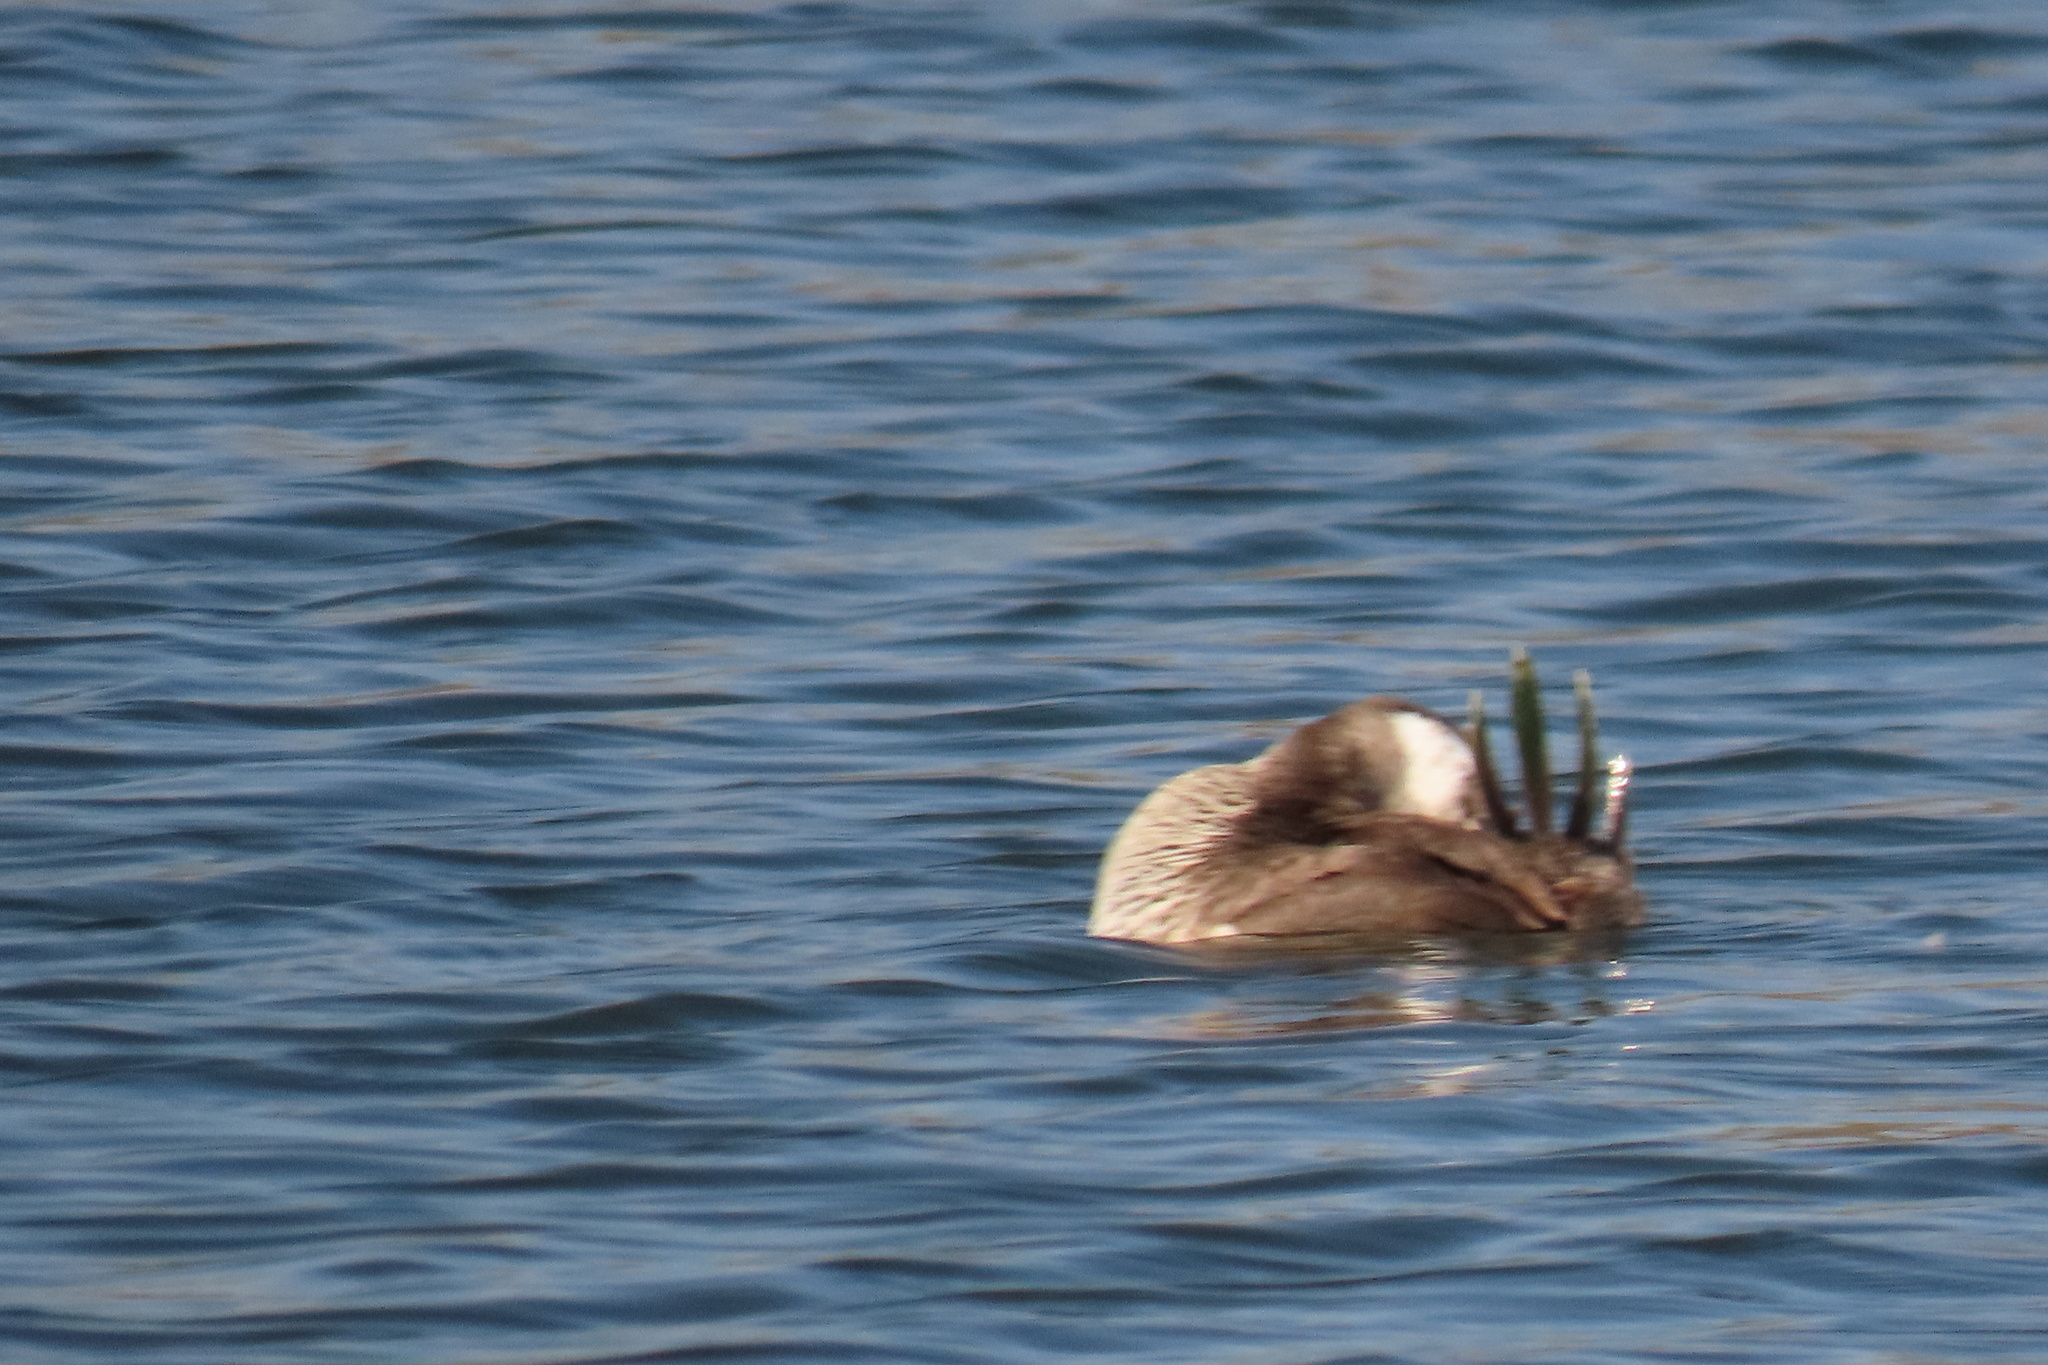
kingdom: Animalia
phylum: Chordata
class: Aves
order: Anseriformes
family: Anatidae
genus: Oxyura
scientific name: Oxyura jamaicensis
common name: Ruddy duck
